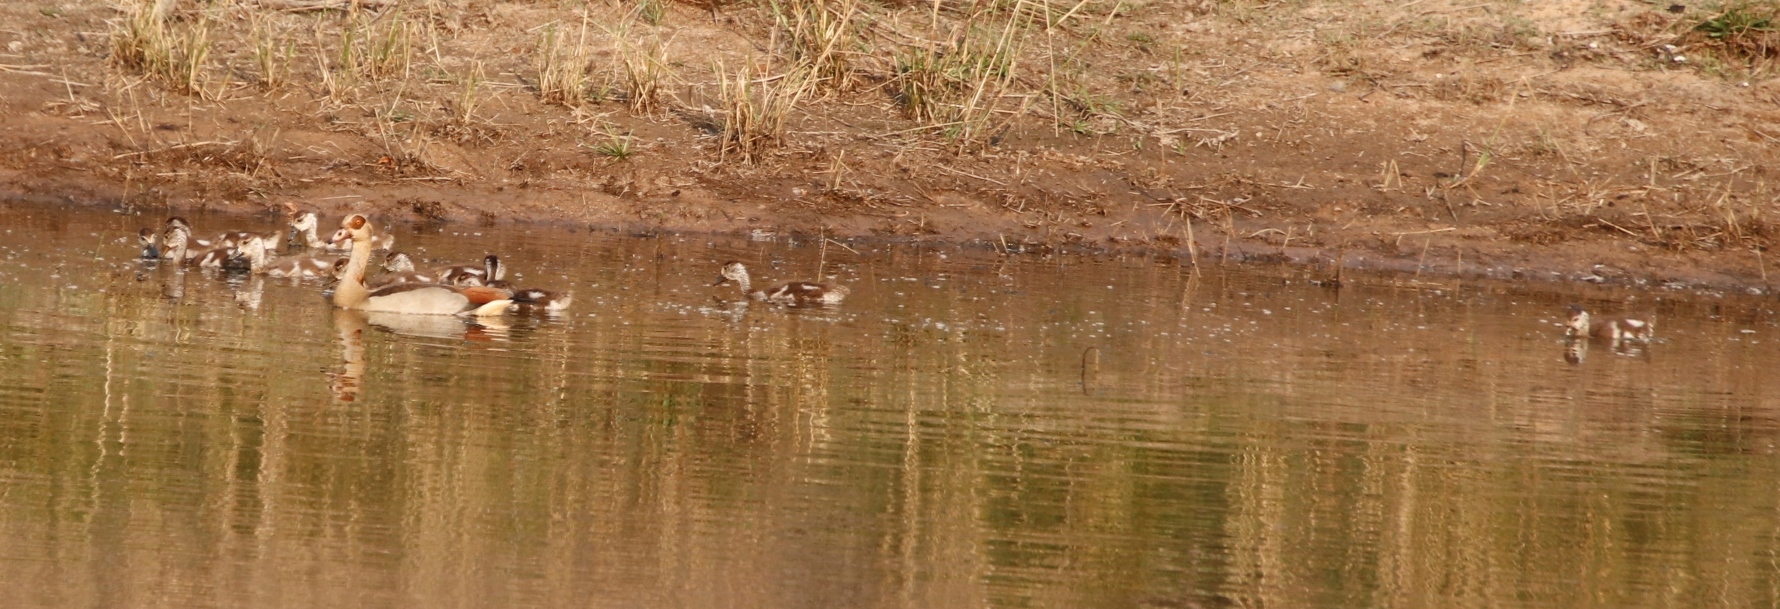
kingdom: Animalia
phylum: Chordata
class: Aves
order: Anseriformes
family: Anatidae
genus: Alopochen
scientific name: Alopochen aegyptiaca
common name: Egyptian goose
